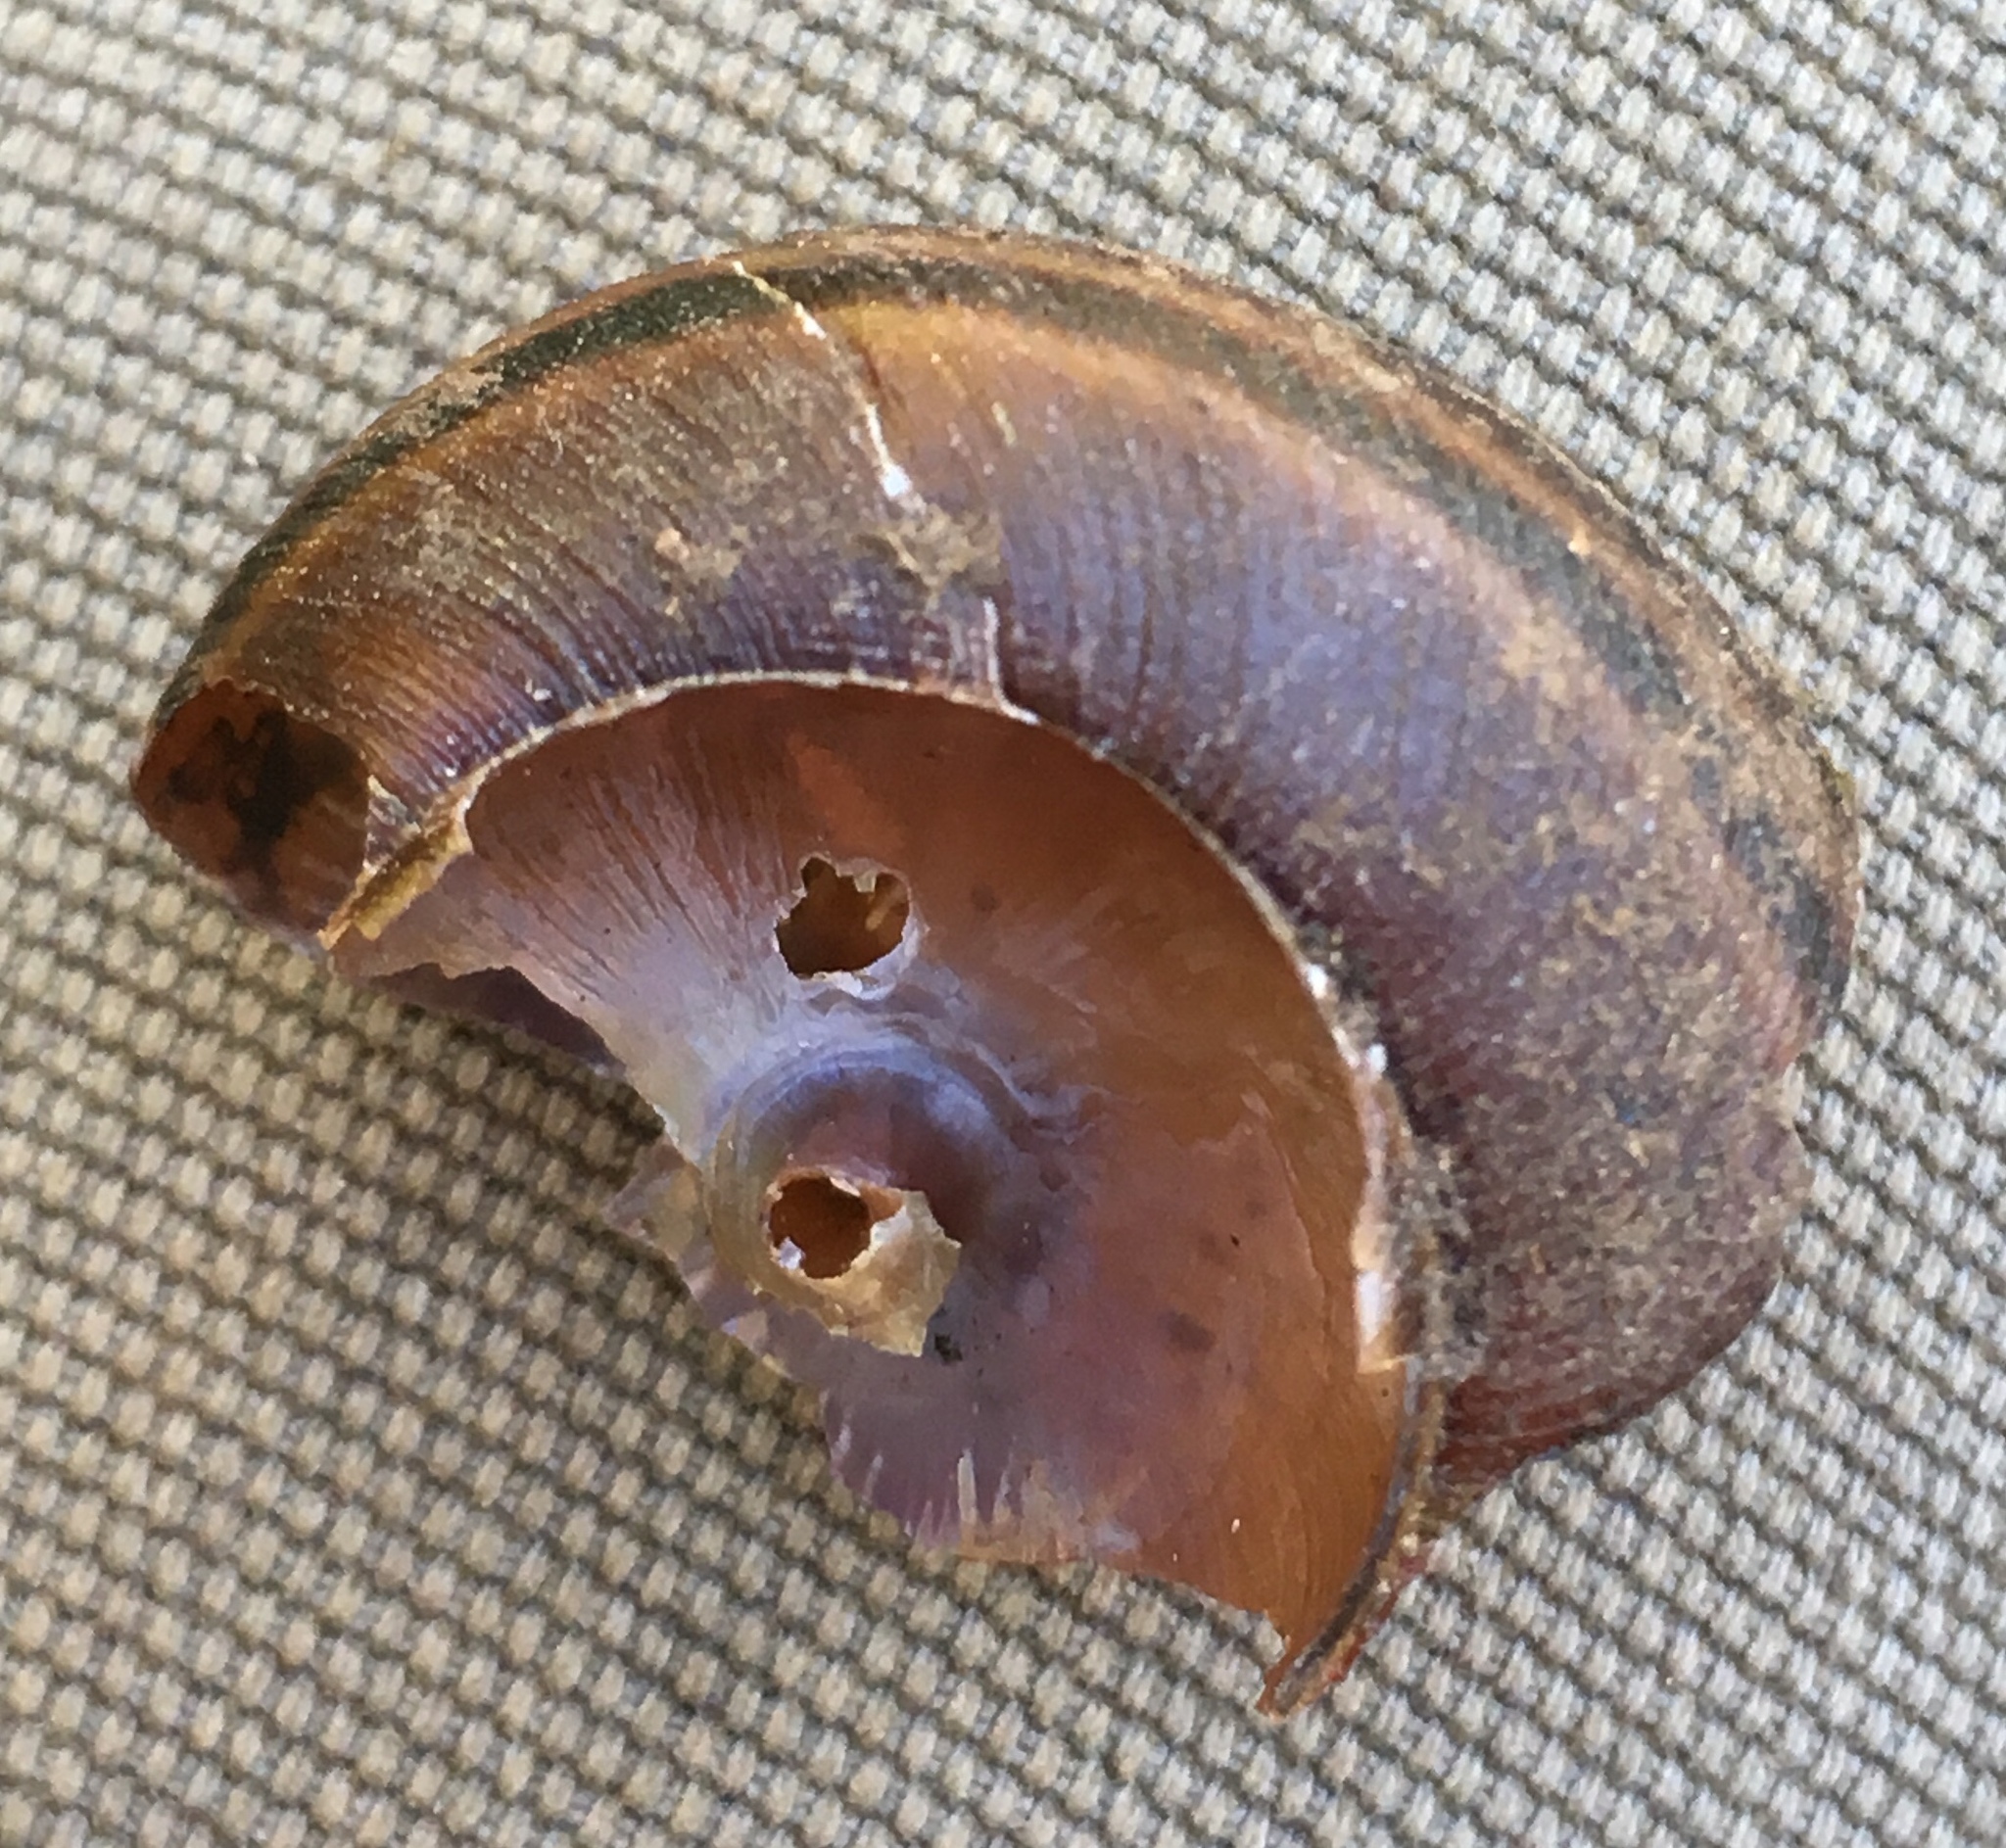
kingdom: Animalia
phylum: Mollusca
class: Gastropoda
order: Stylommatophora
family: Xanthonychidae
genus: Helminthoglypta
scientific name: Helminthoglypta sanctaecrucis
